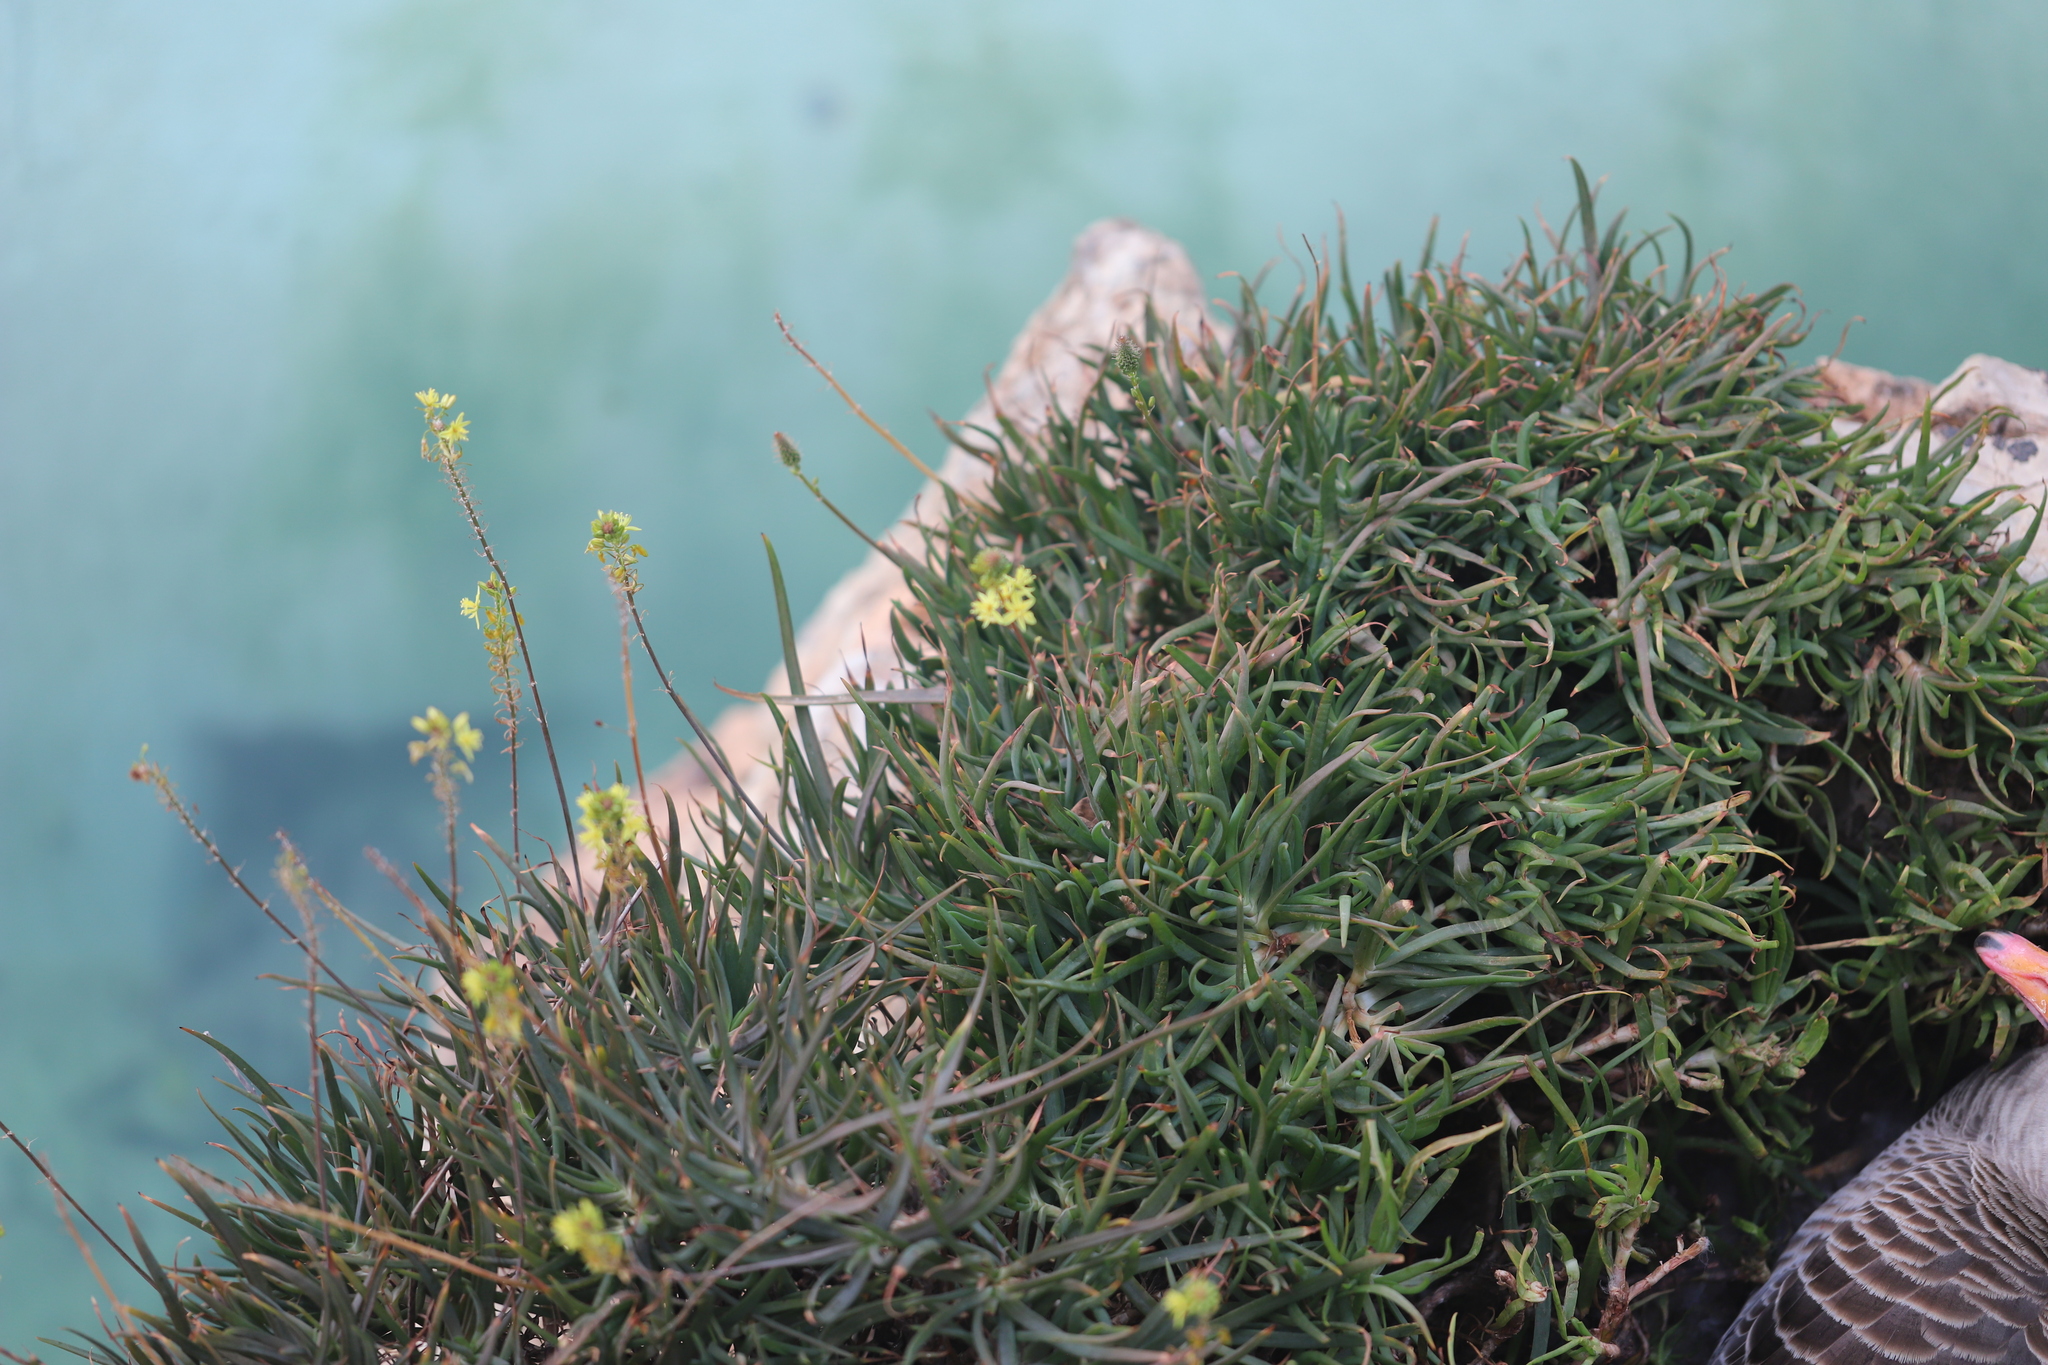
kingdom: Plantae
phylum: Tracheophyta
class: Liliopsida
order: Asparagales
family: Asphodelaceae
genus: Bulbine
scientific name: Bulbine frutescens
